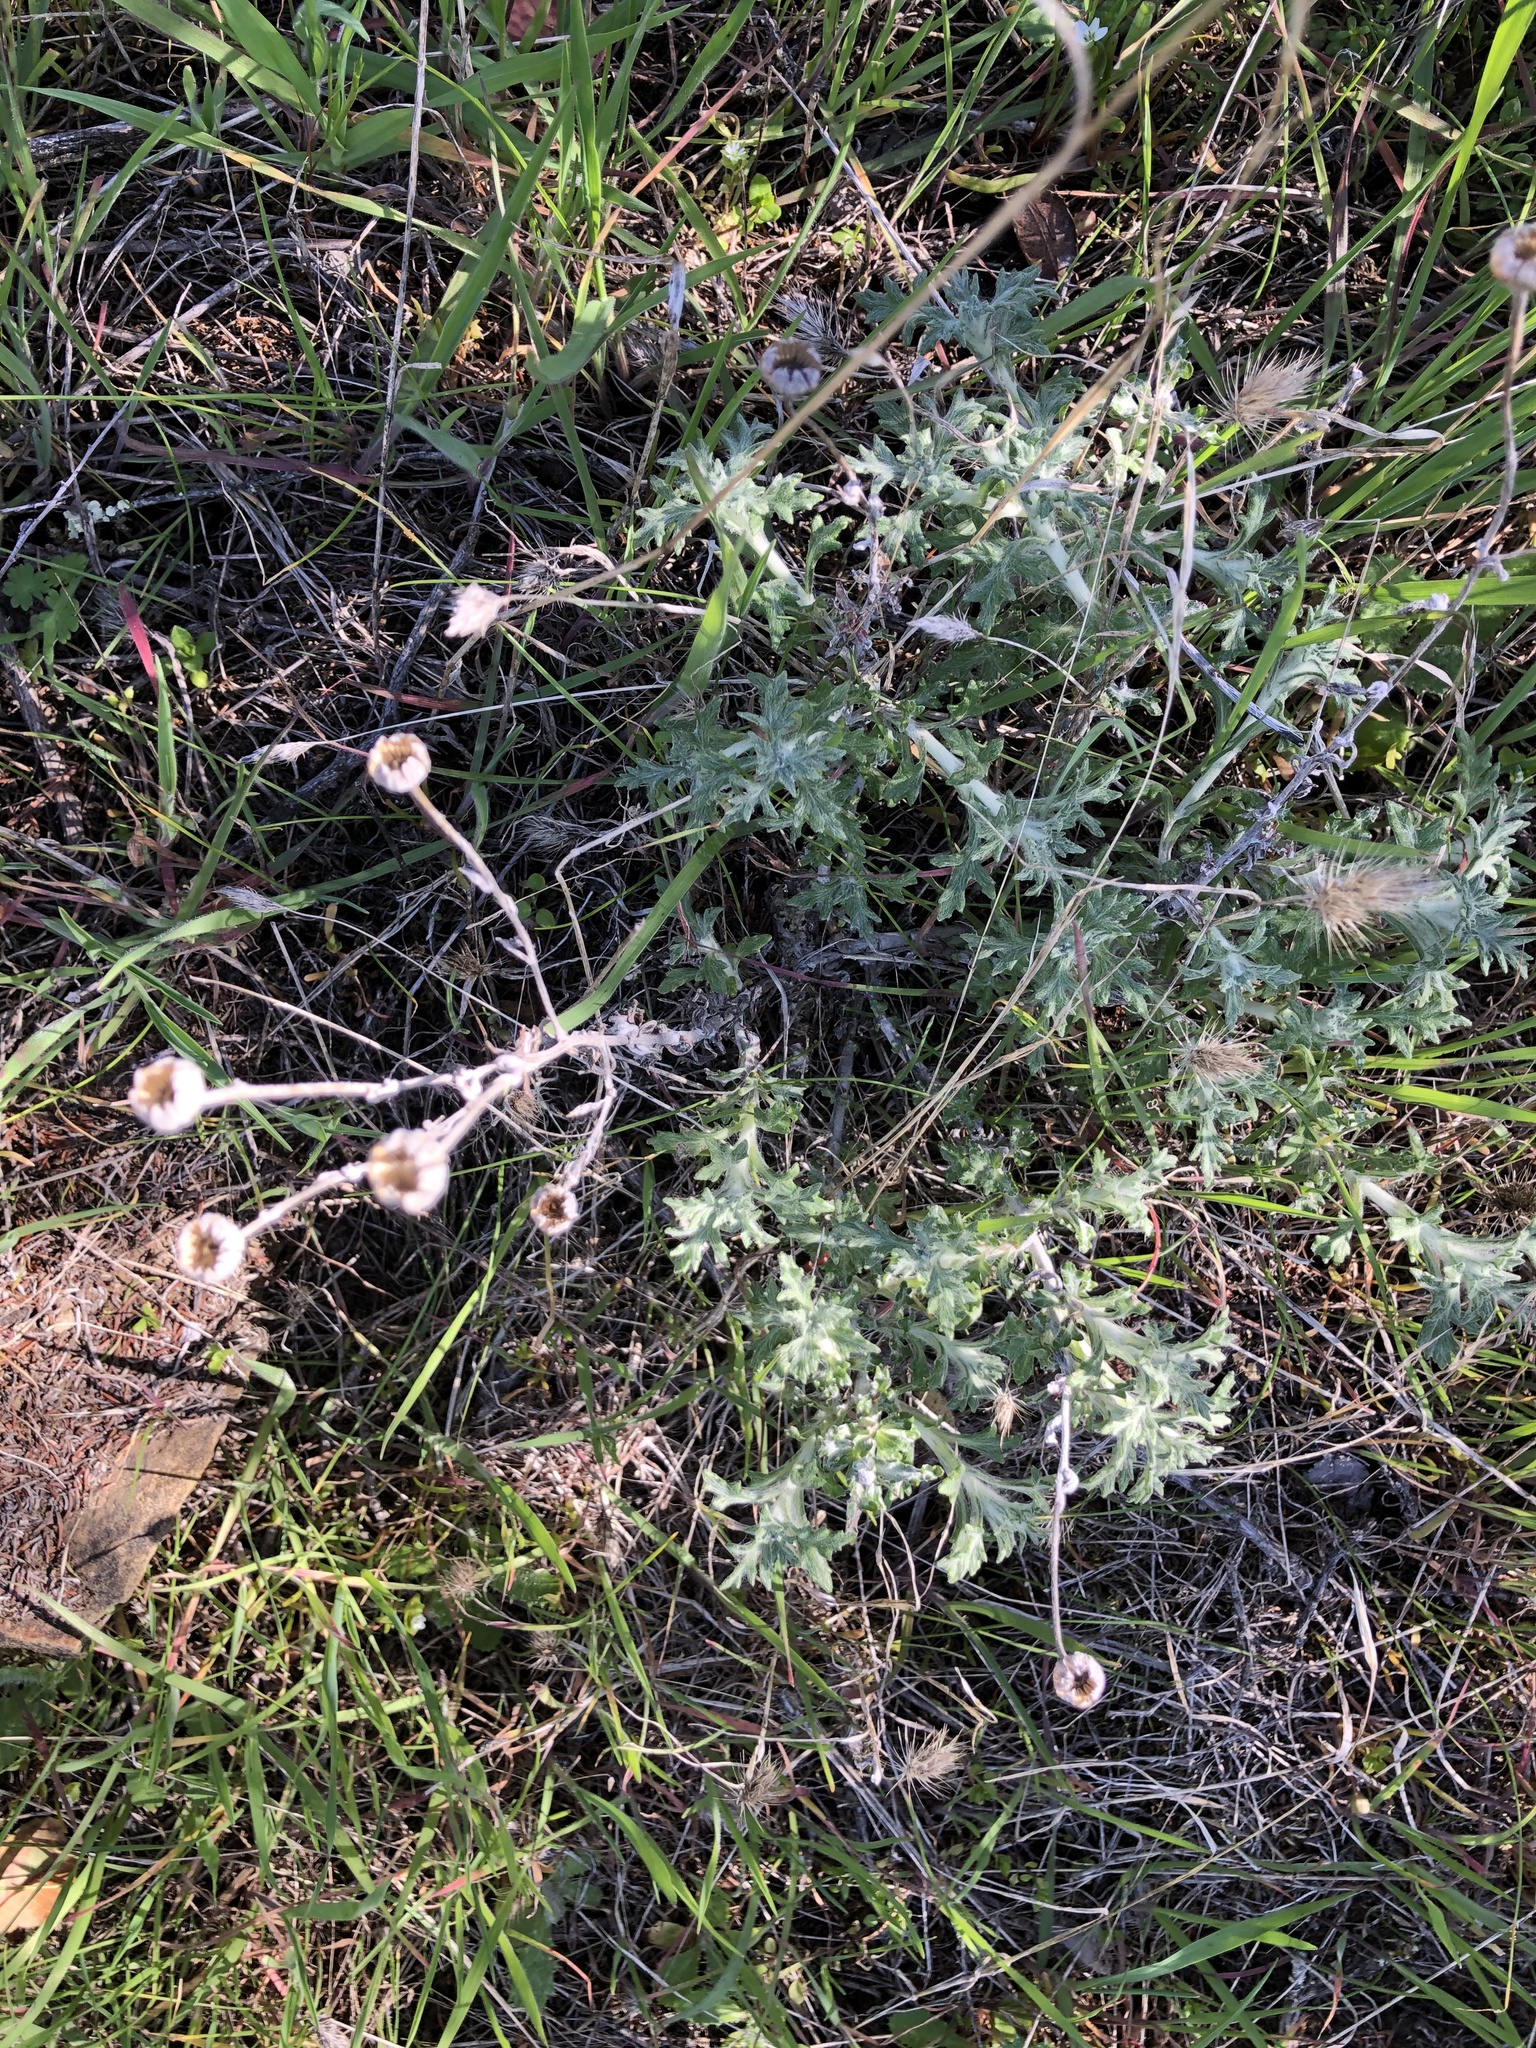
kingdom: Plantae
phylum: Tracheophyta
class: Magnoliopsida
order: Asterales
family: Asteraceae
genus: Eriophyllum
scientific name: Eriophyllum lanatum
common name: Common woolly-sunflower
